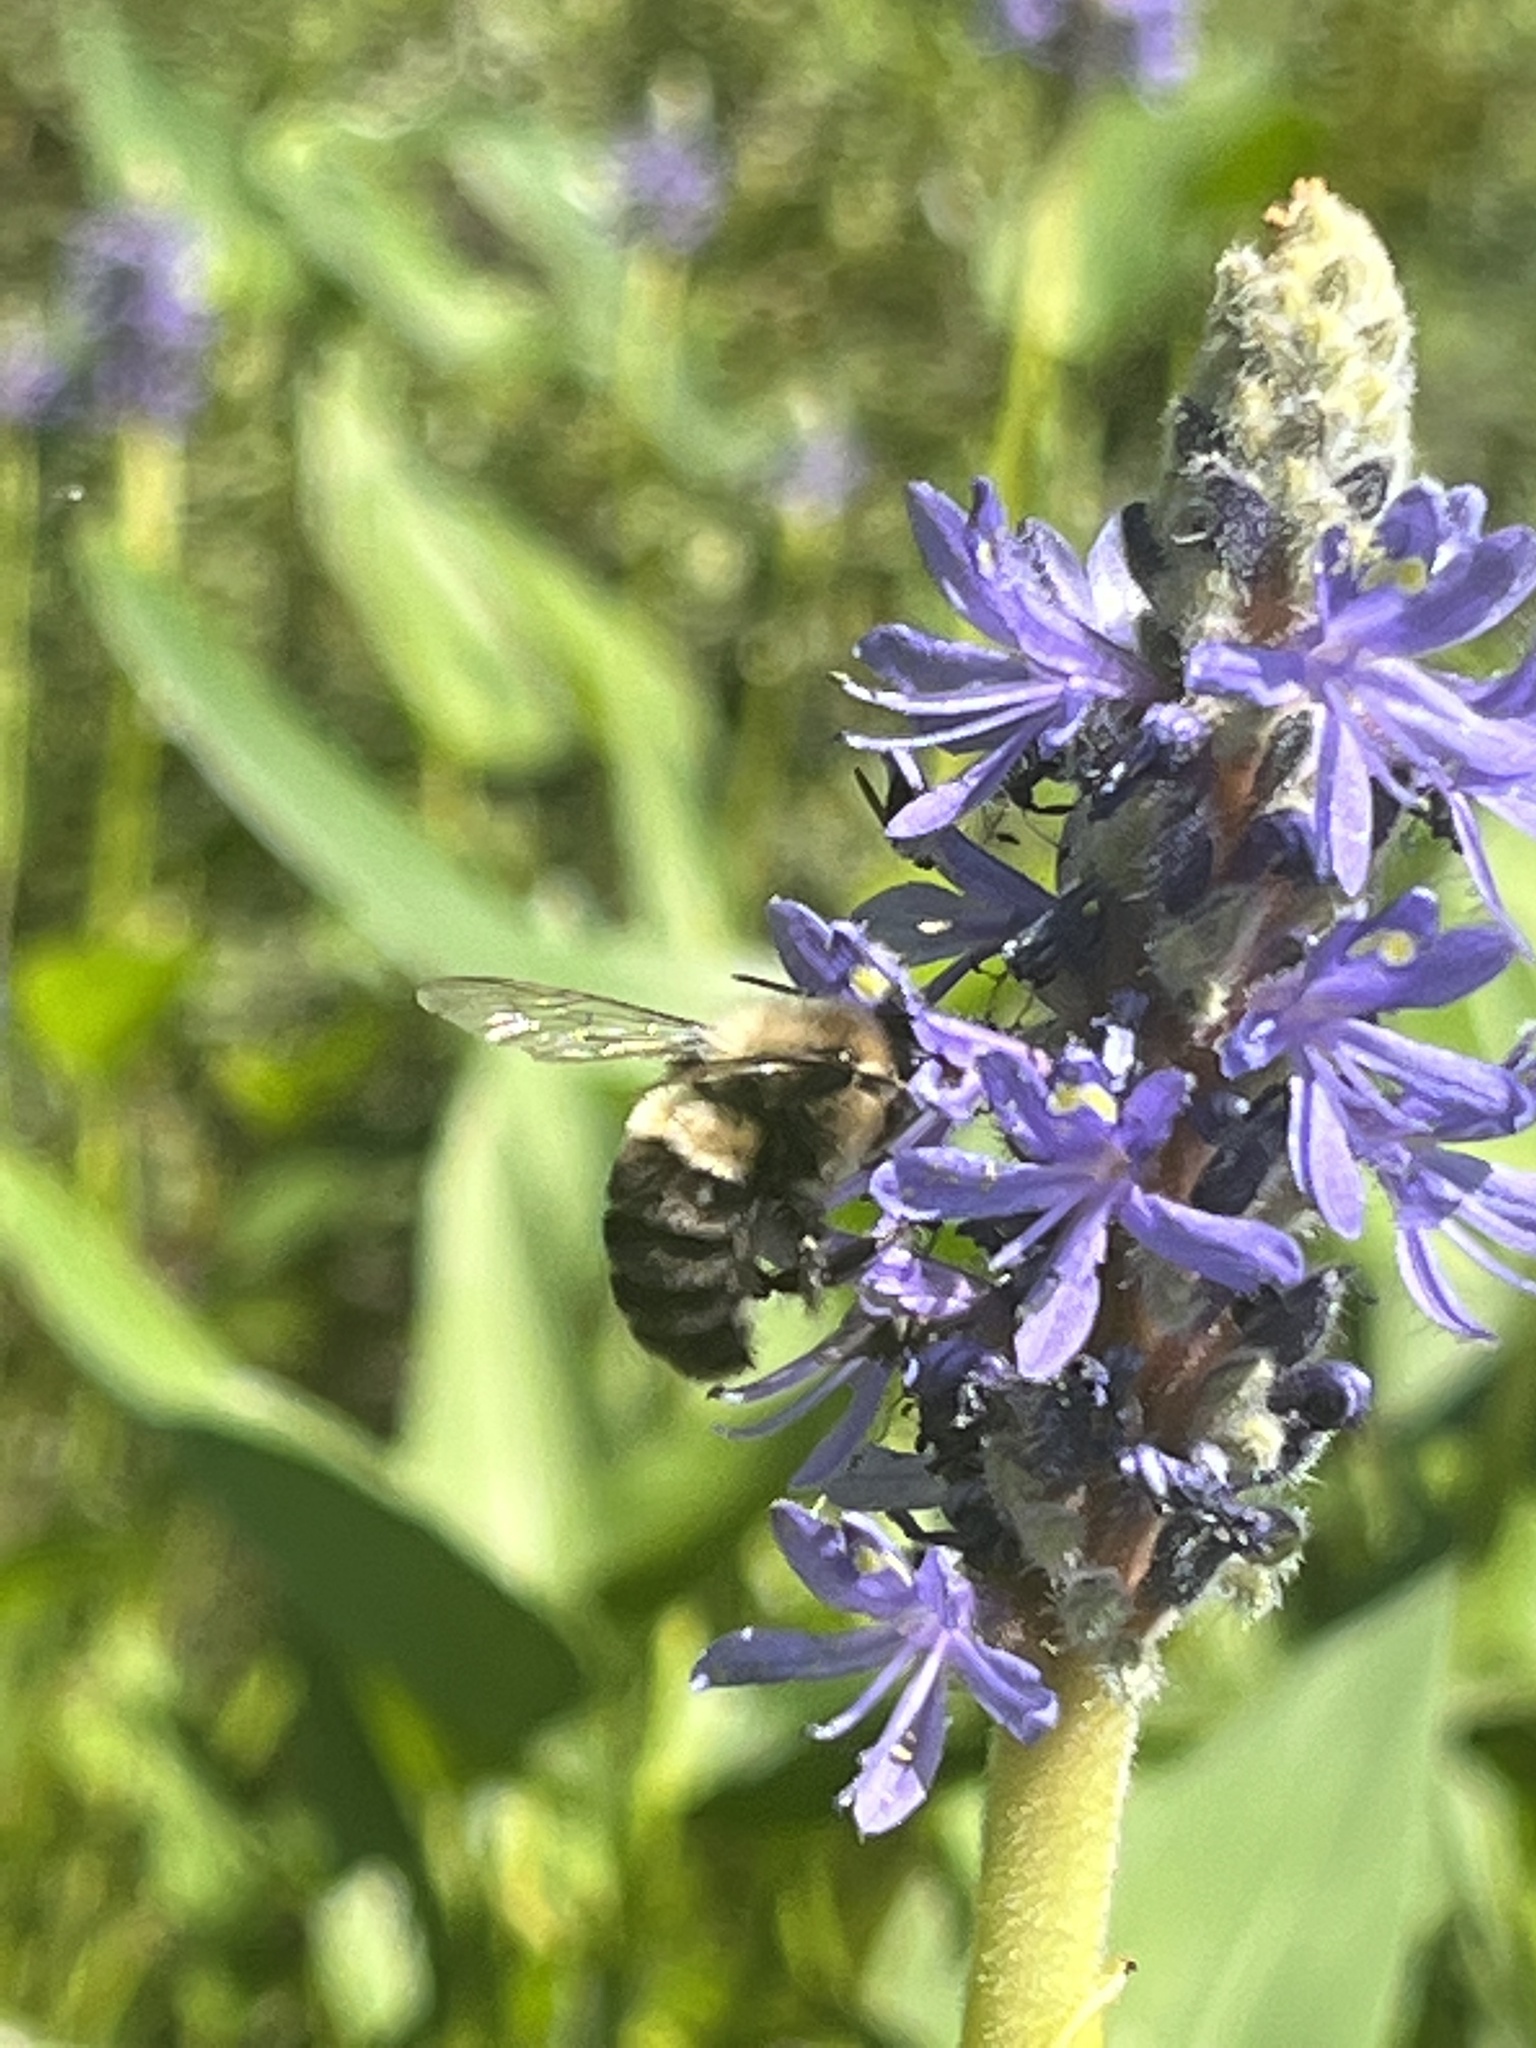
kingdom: Animalia
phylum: Arthropoda
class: Insecta
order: Hymenoptera
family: Apidae
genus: Bombus
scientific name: Bombus impatiens
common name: Common eastern bumble bee
